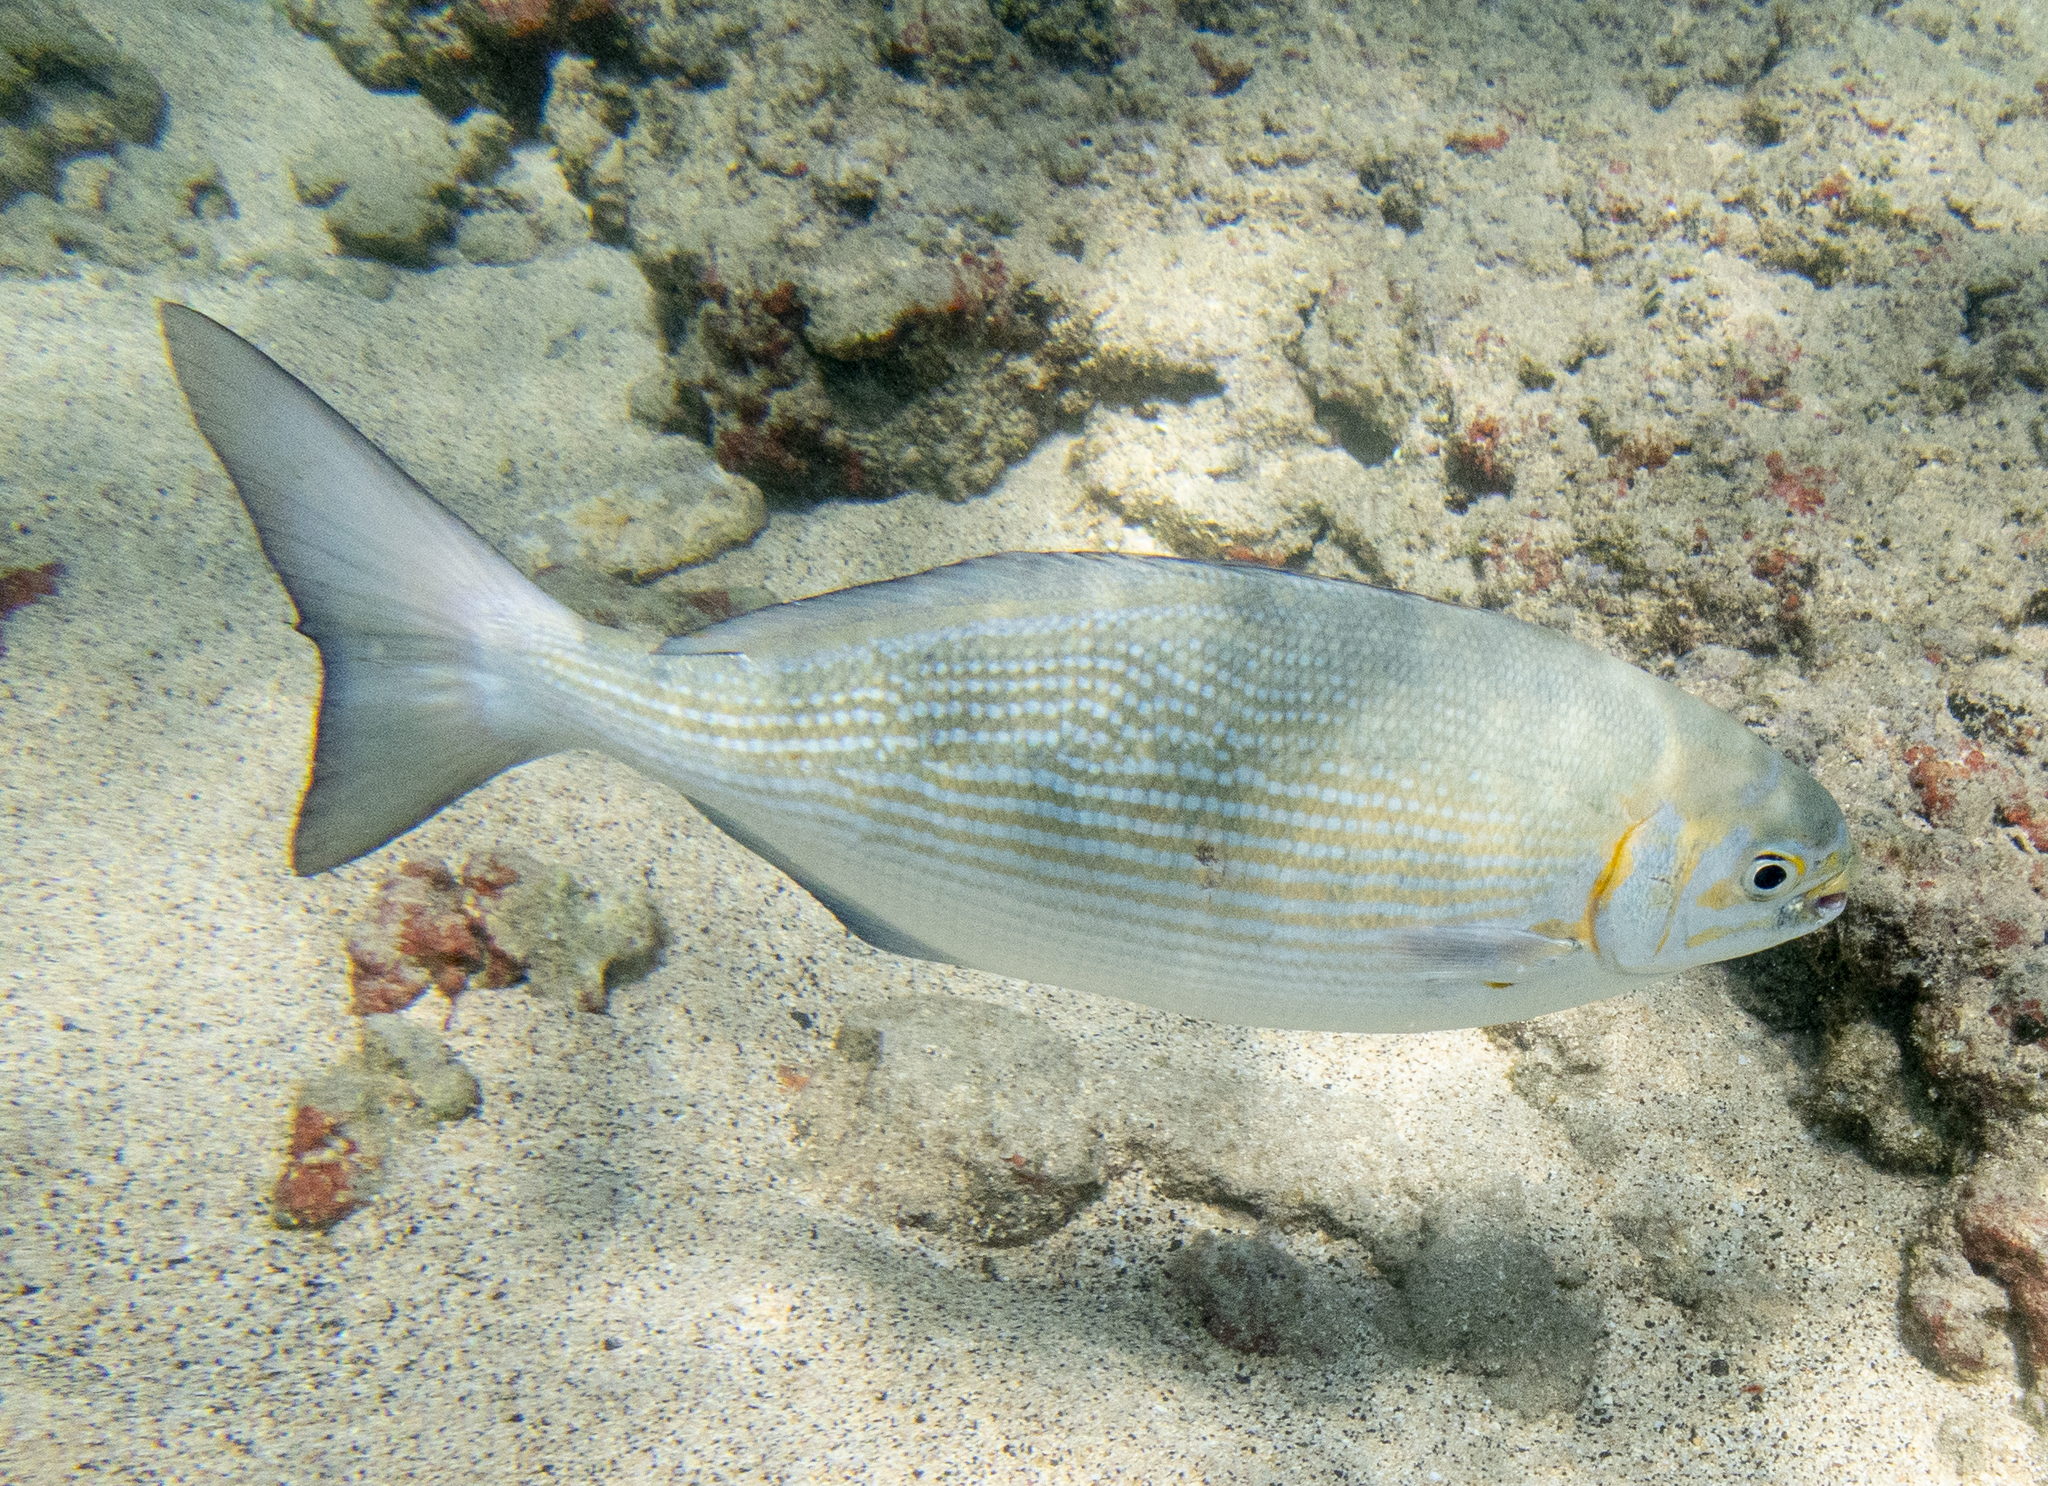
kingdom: Animalia
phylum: Chordata
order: Perciformes
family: Kyphosidae
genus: Kyphosus
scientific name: Kyphosus vaigiensis
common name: Brassy chub
